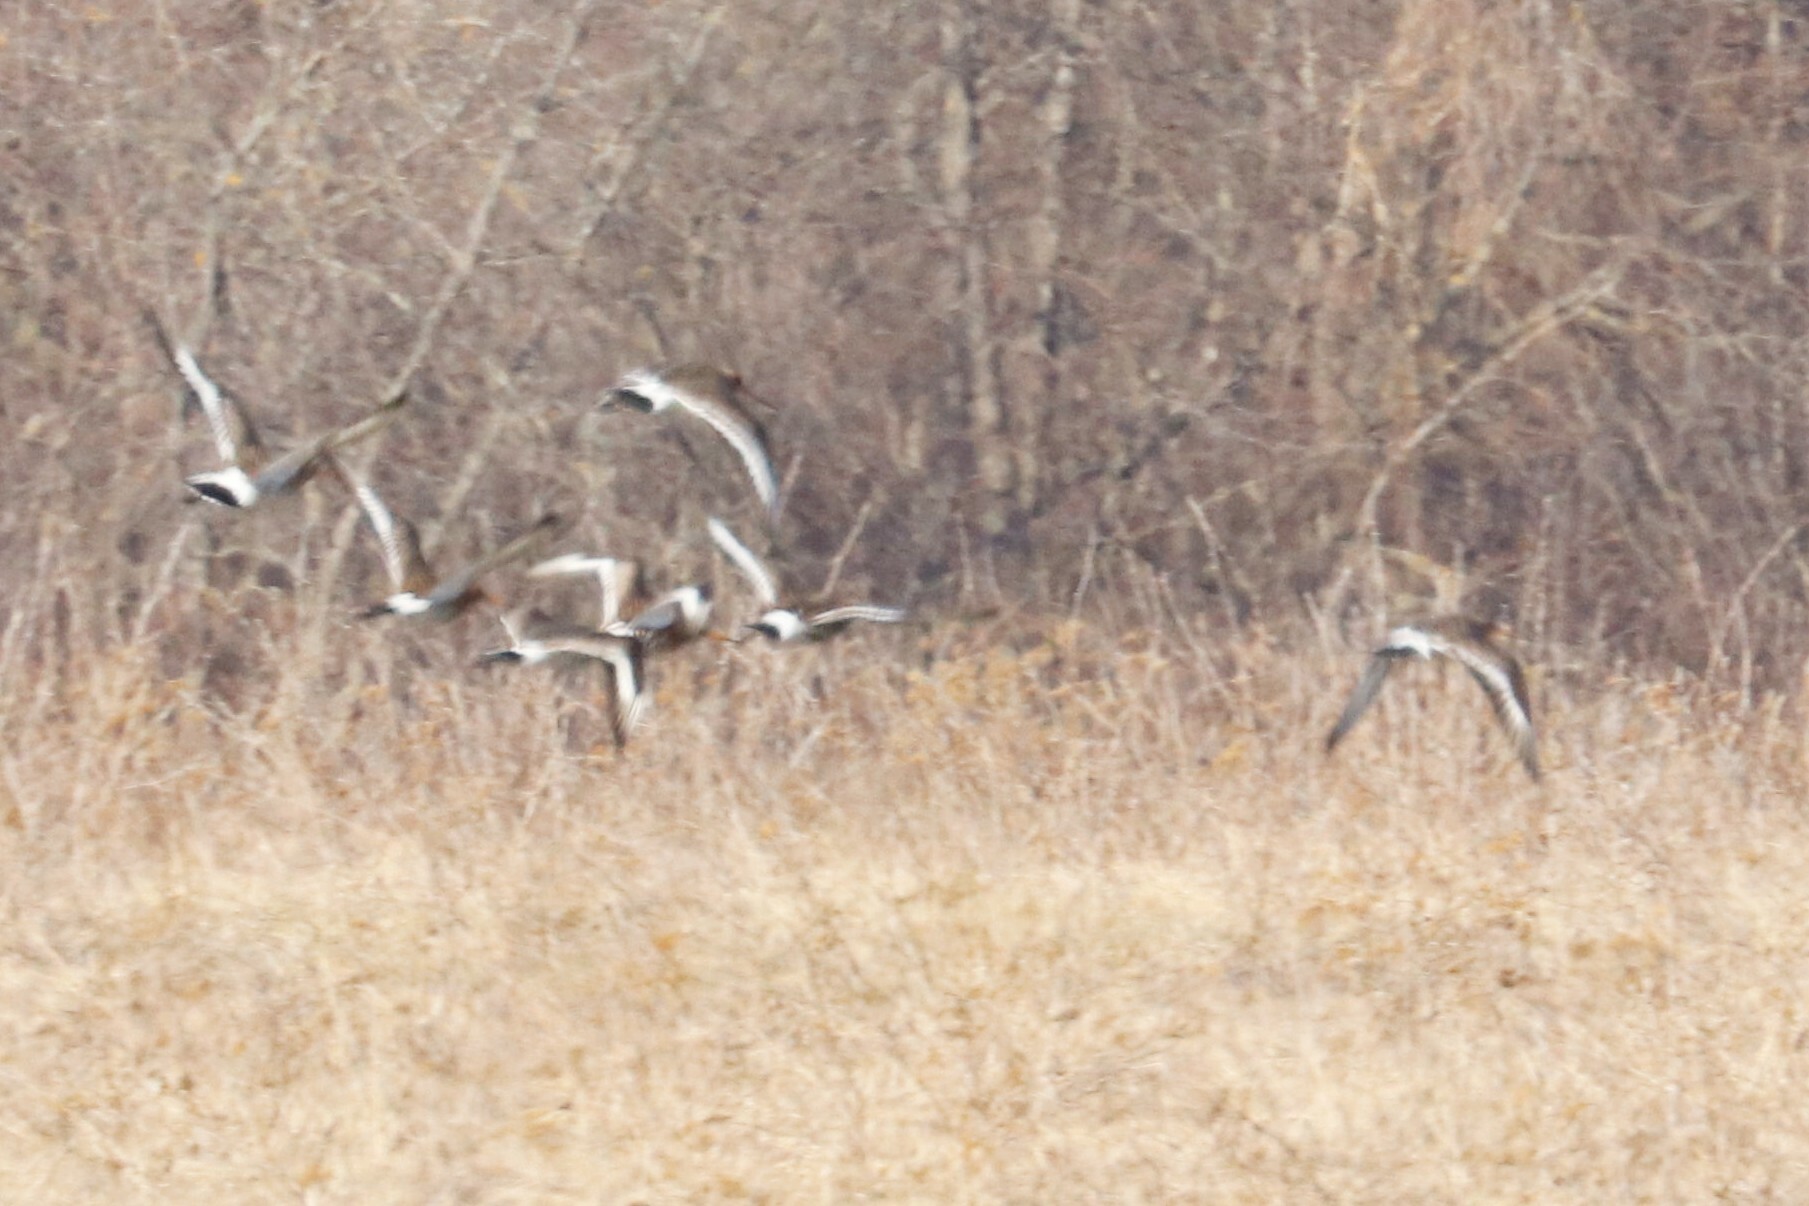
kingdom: Animalia
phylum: Chordata
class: Aves
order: Charadriiformes
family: Scolopacidae
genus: Limosa
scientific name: Limosa limosa
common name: Black-tailed godwit
